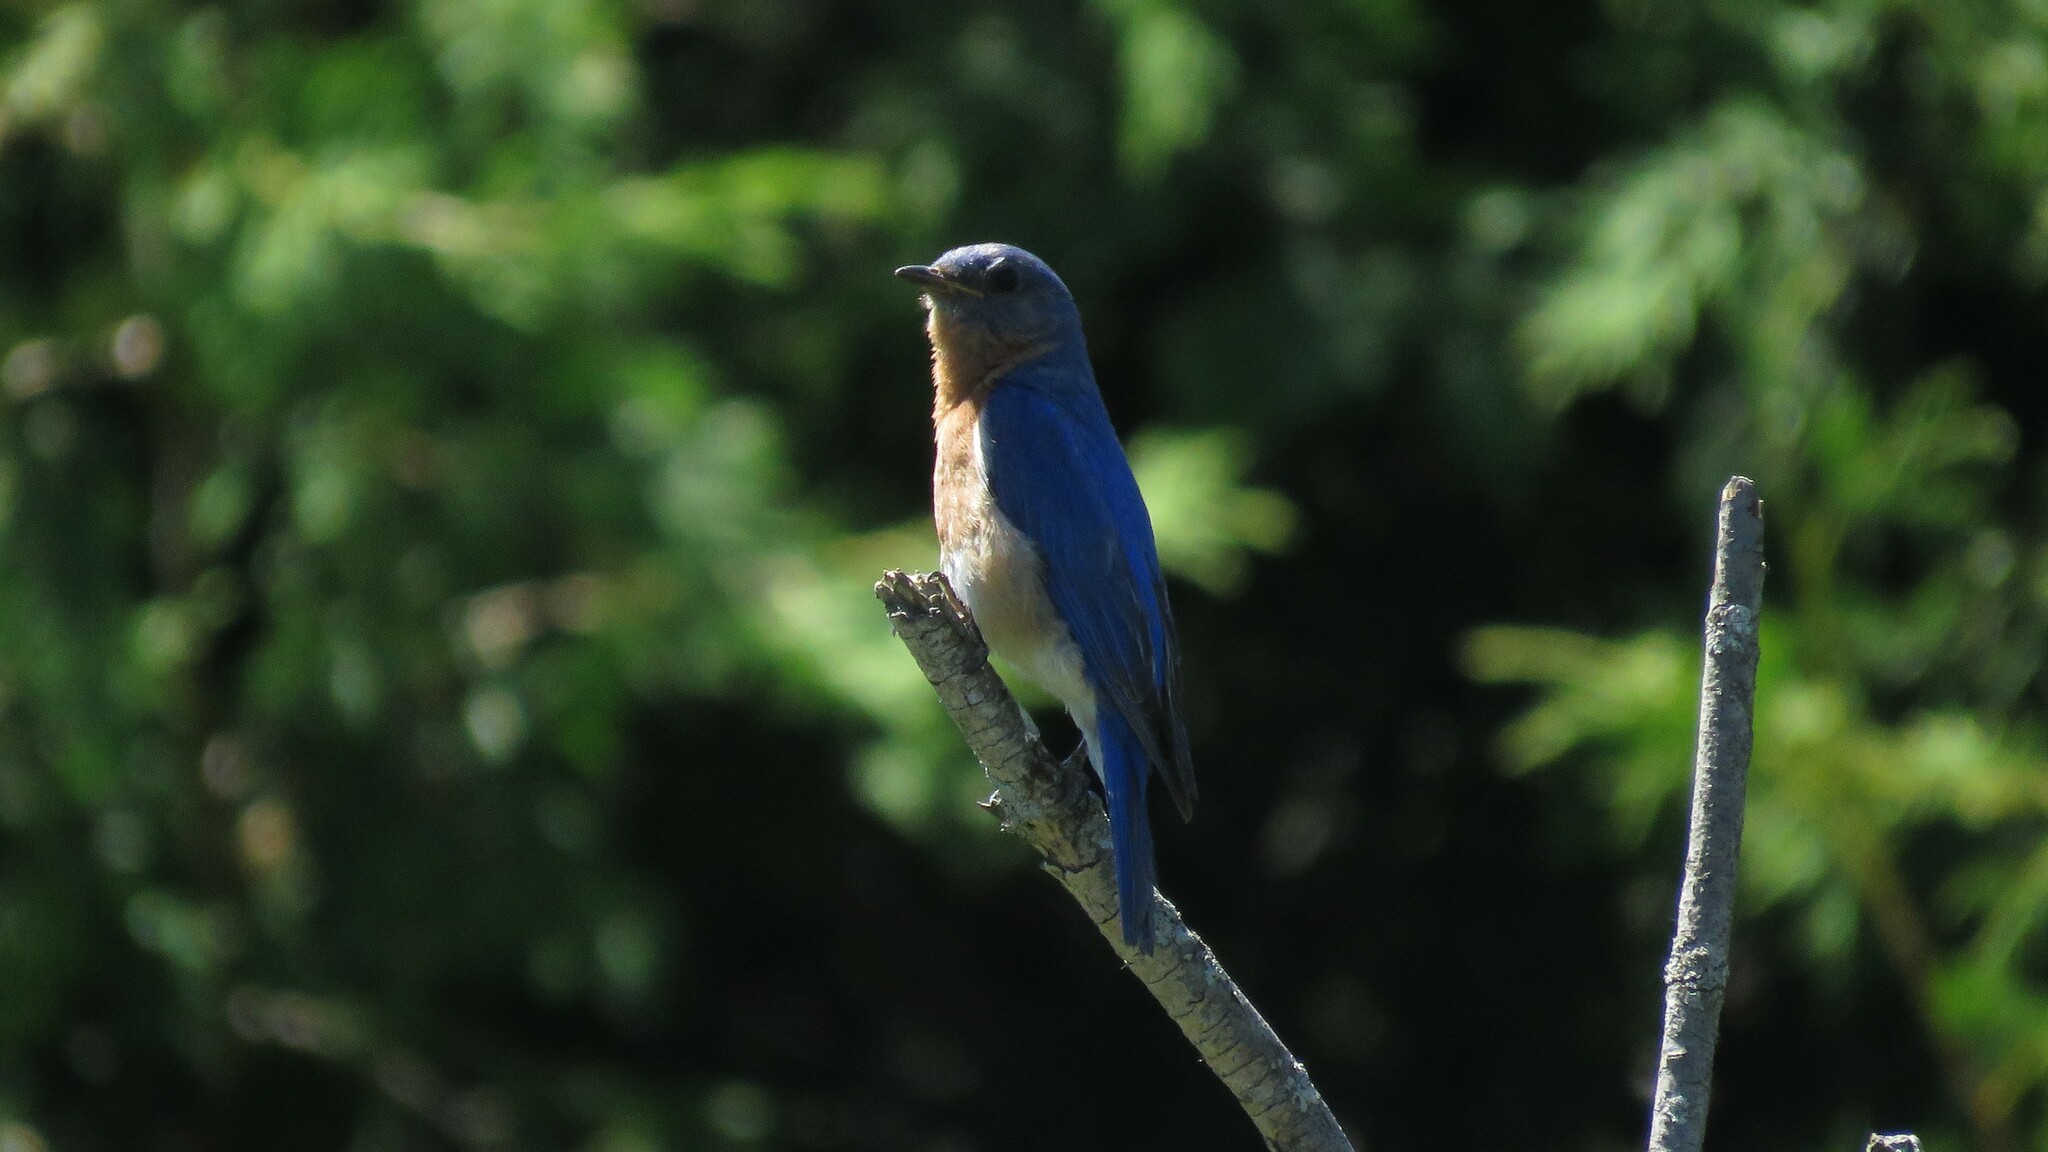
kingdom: Animalia
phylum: Chordata
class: Aves
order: Passeriformes
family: Turdidae
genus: Sialia
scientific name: Sialia sialis
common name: Eastern bluebird
